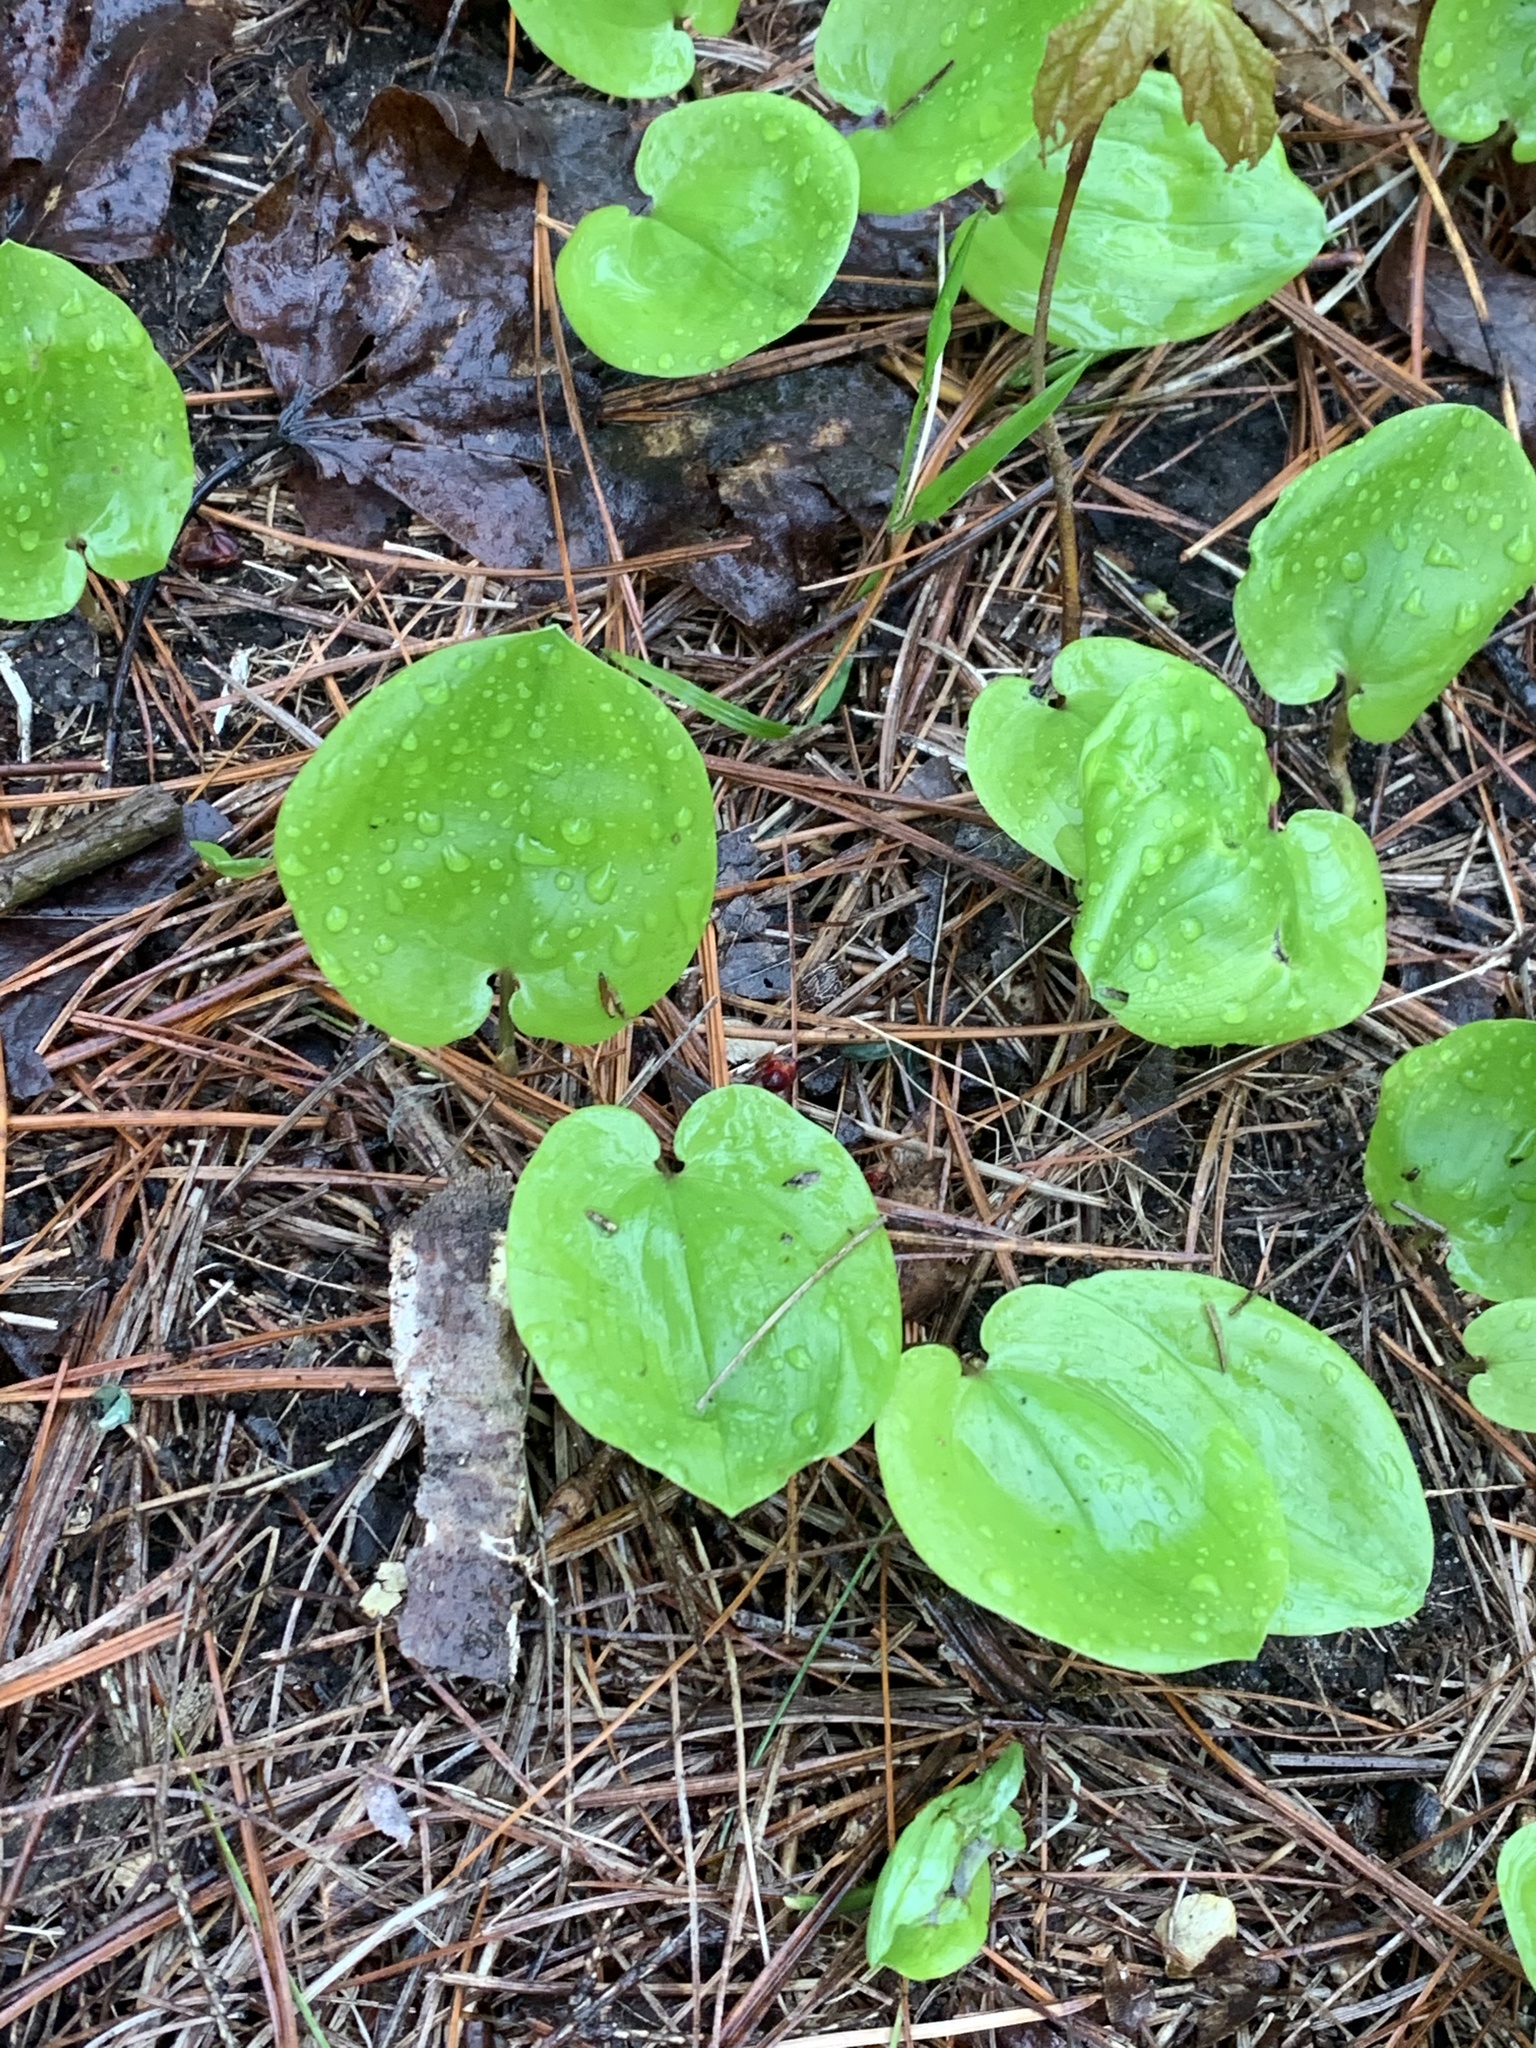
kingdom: Plantae
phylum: Tracheophyta
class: Liliopsida
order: Asparagales
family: Asparagaceae
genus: Maianthemum
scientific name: Maianthemum canadense
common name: False lily-of-the-valley
